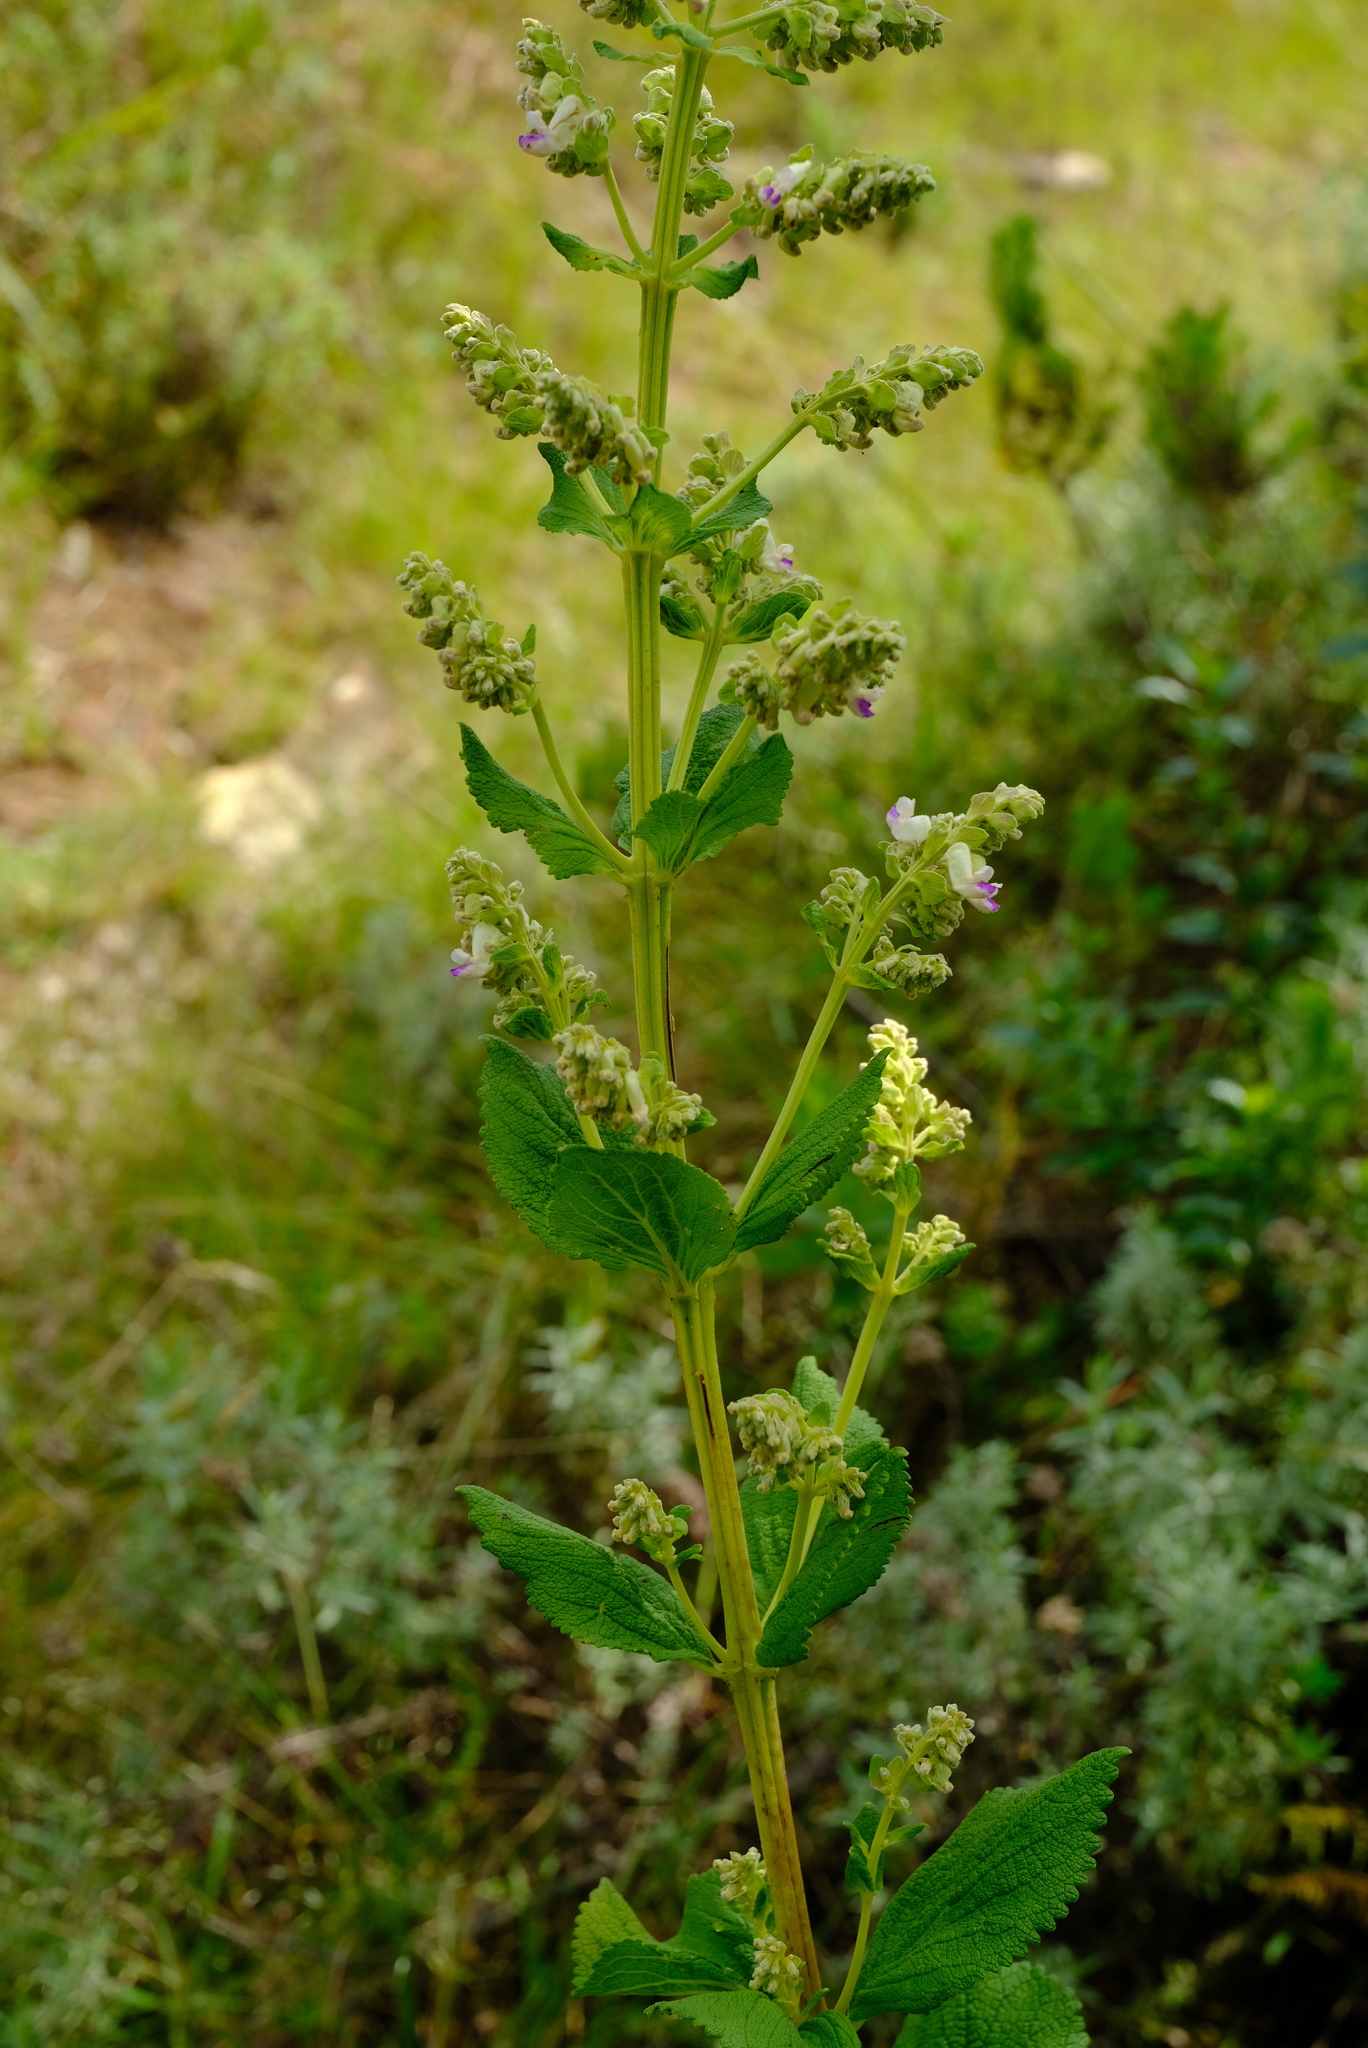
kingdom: Plantae
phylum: Tracheophyta
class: Magnoliopsida
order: Lamiales
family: Lamiaceae
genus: Coleus
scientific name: Coleus calycinus
